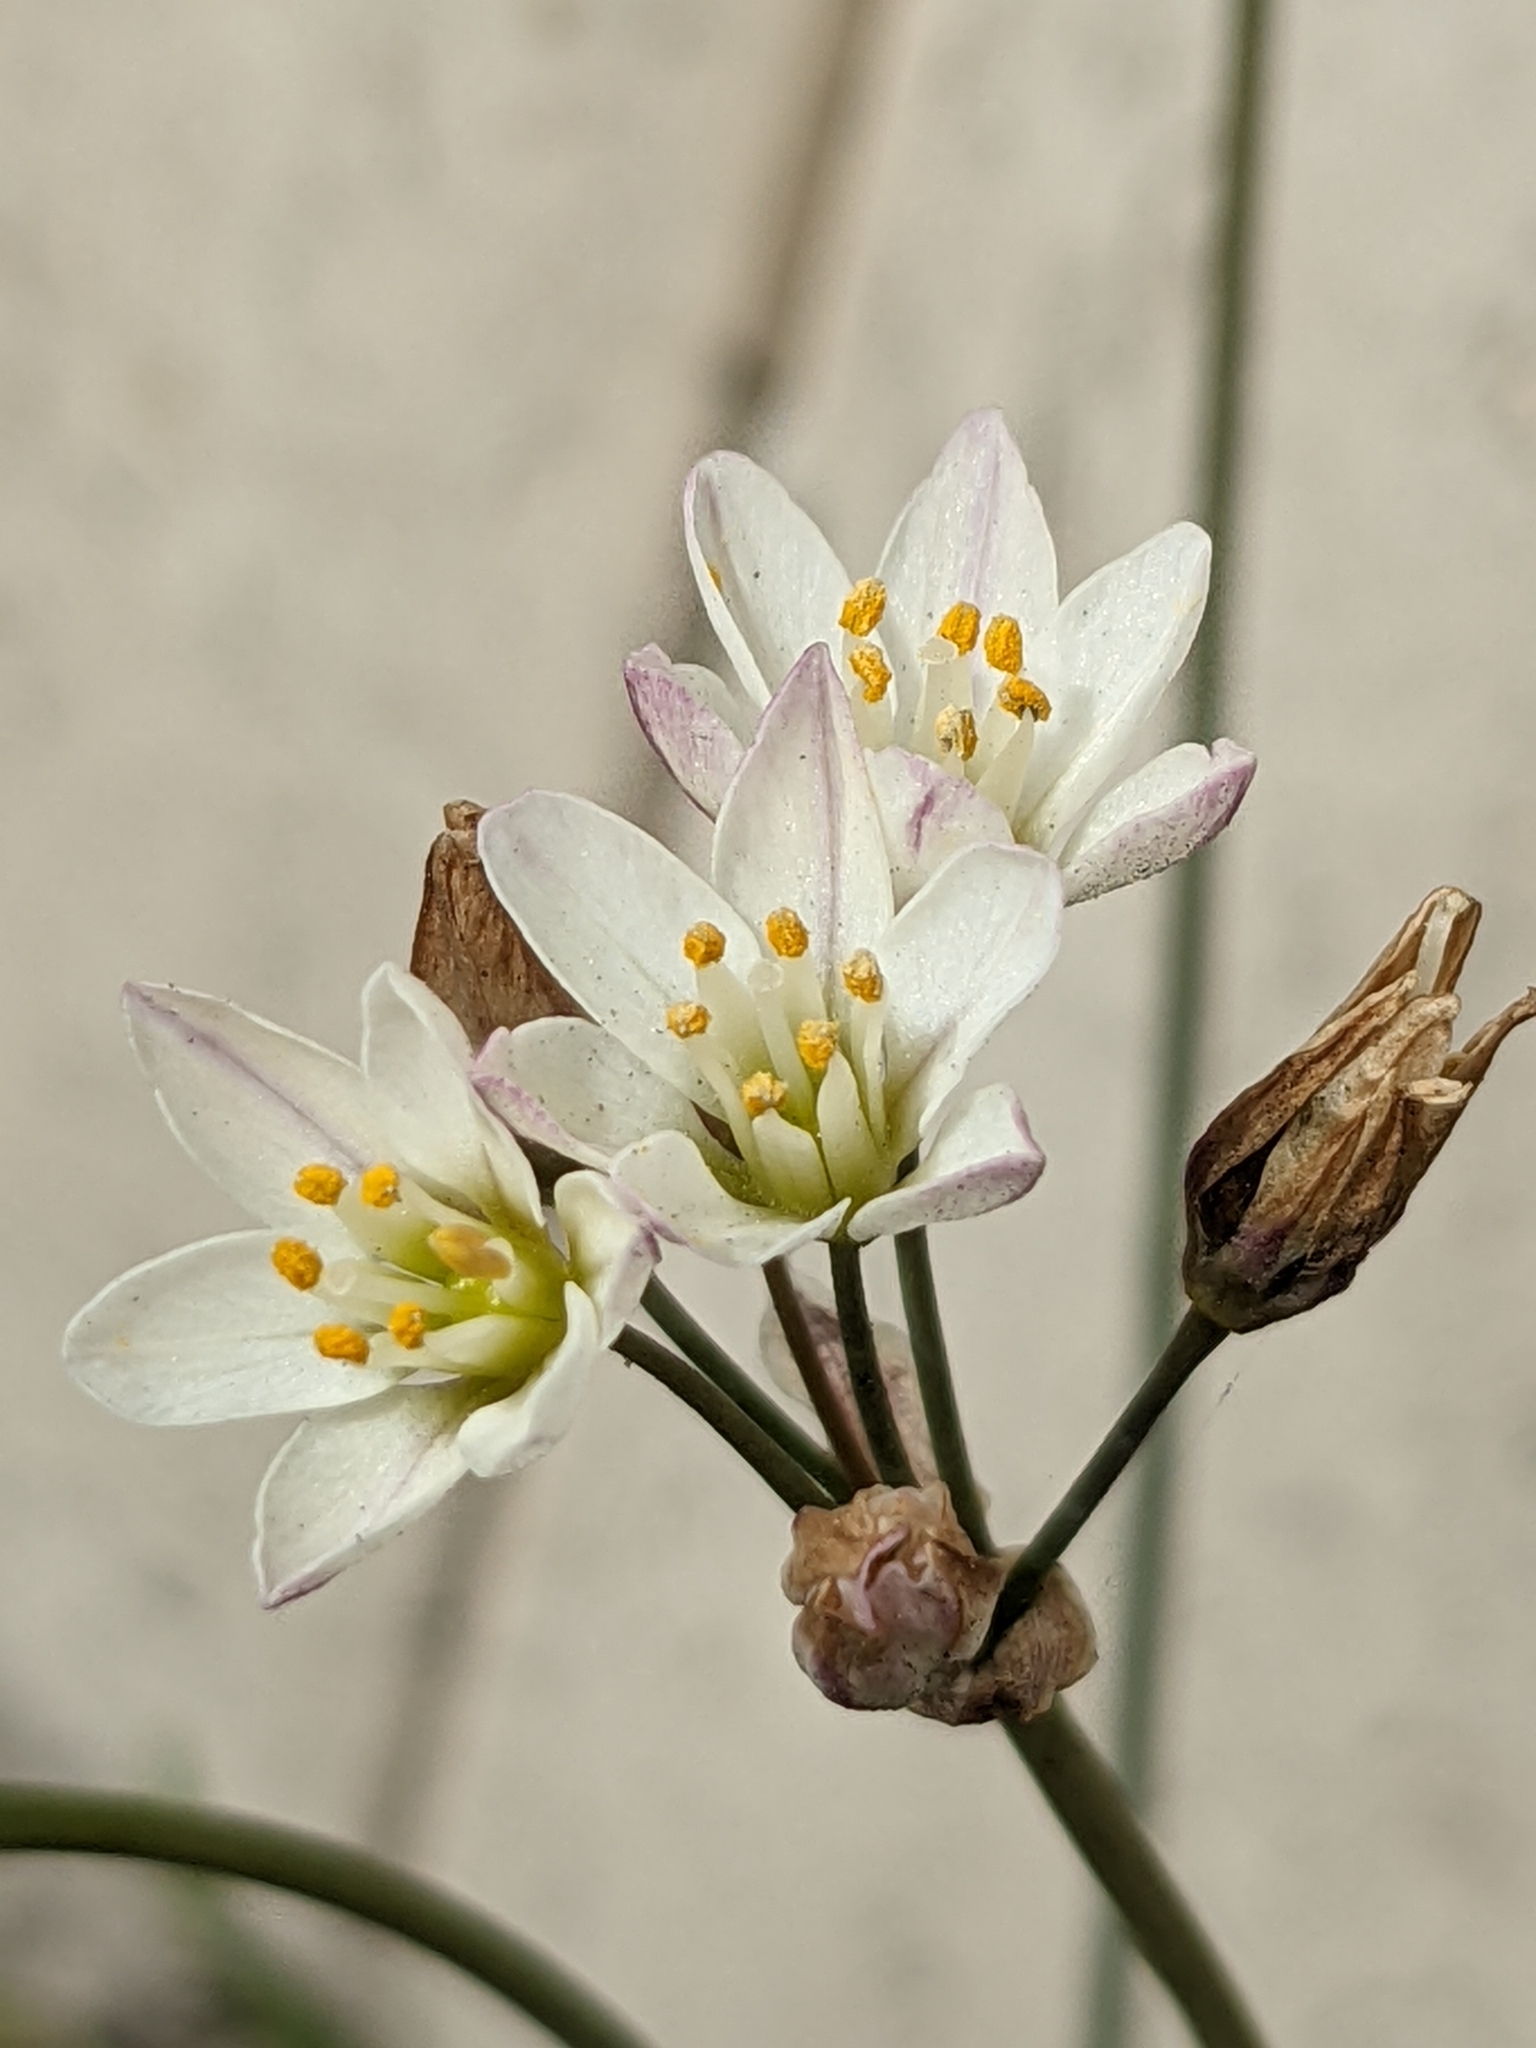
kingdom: Plantae
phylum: Tracheophyta
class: Liliopsida
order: Asparagales
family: Amaryllidaceae
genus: Nothoscordum
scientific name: Nothoscordum gracile
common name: Slender false garlic
